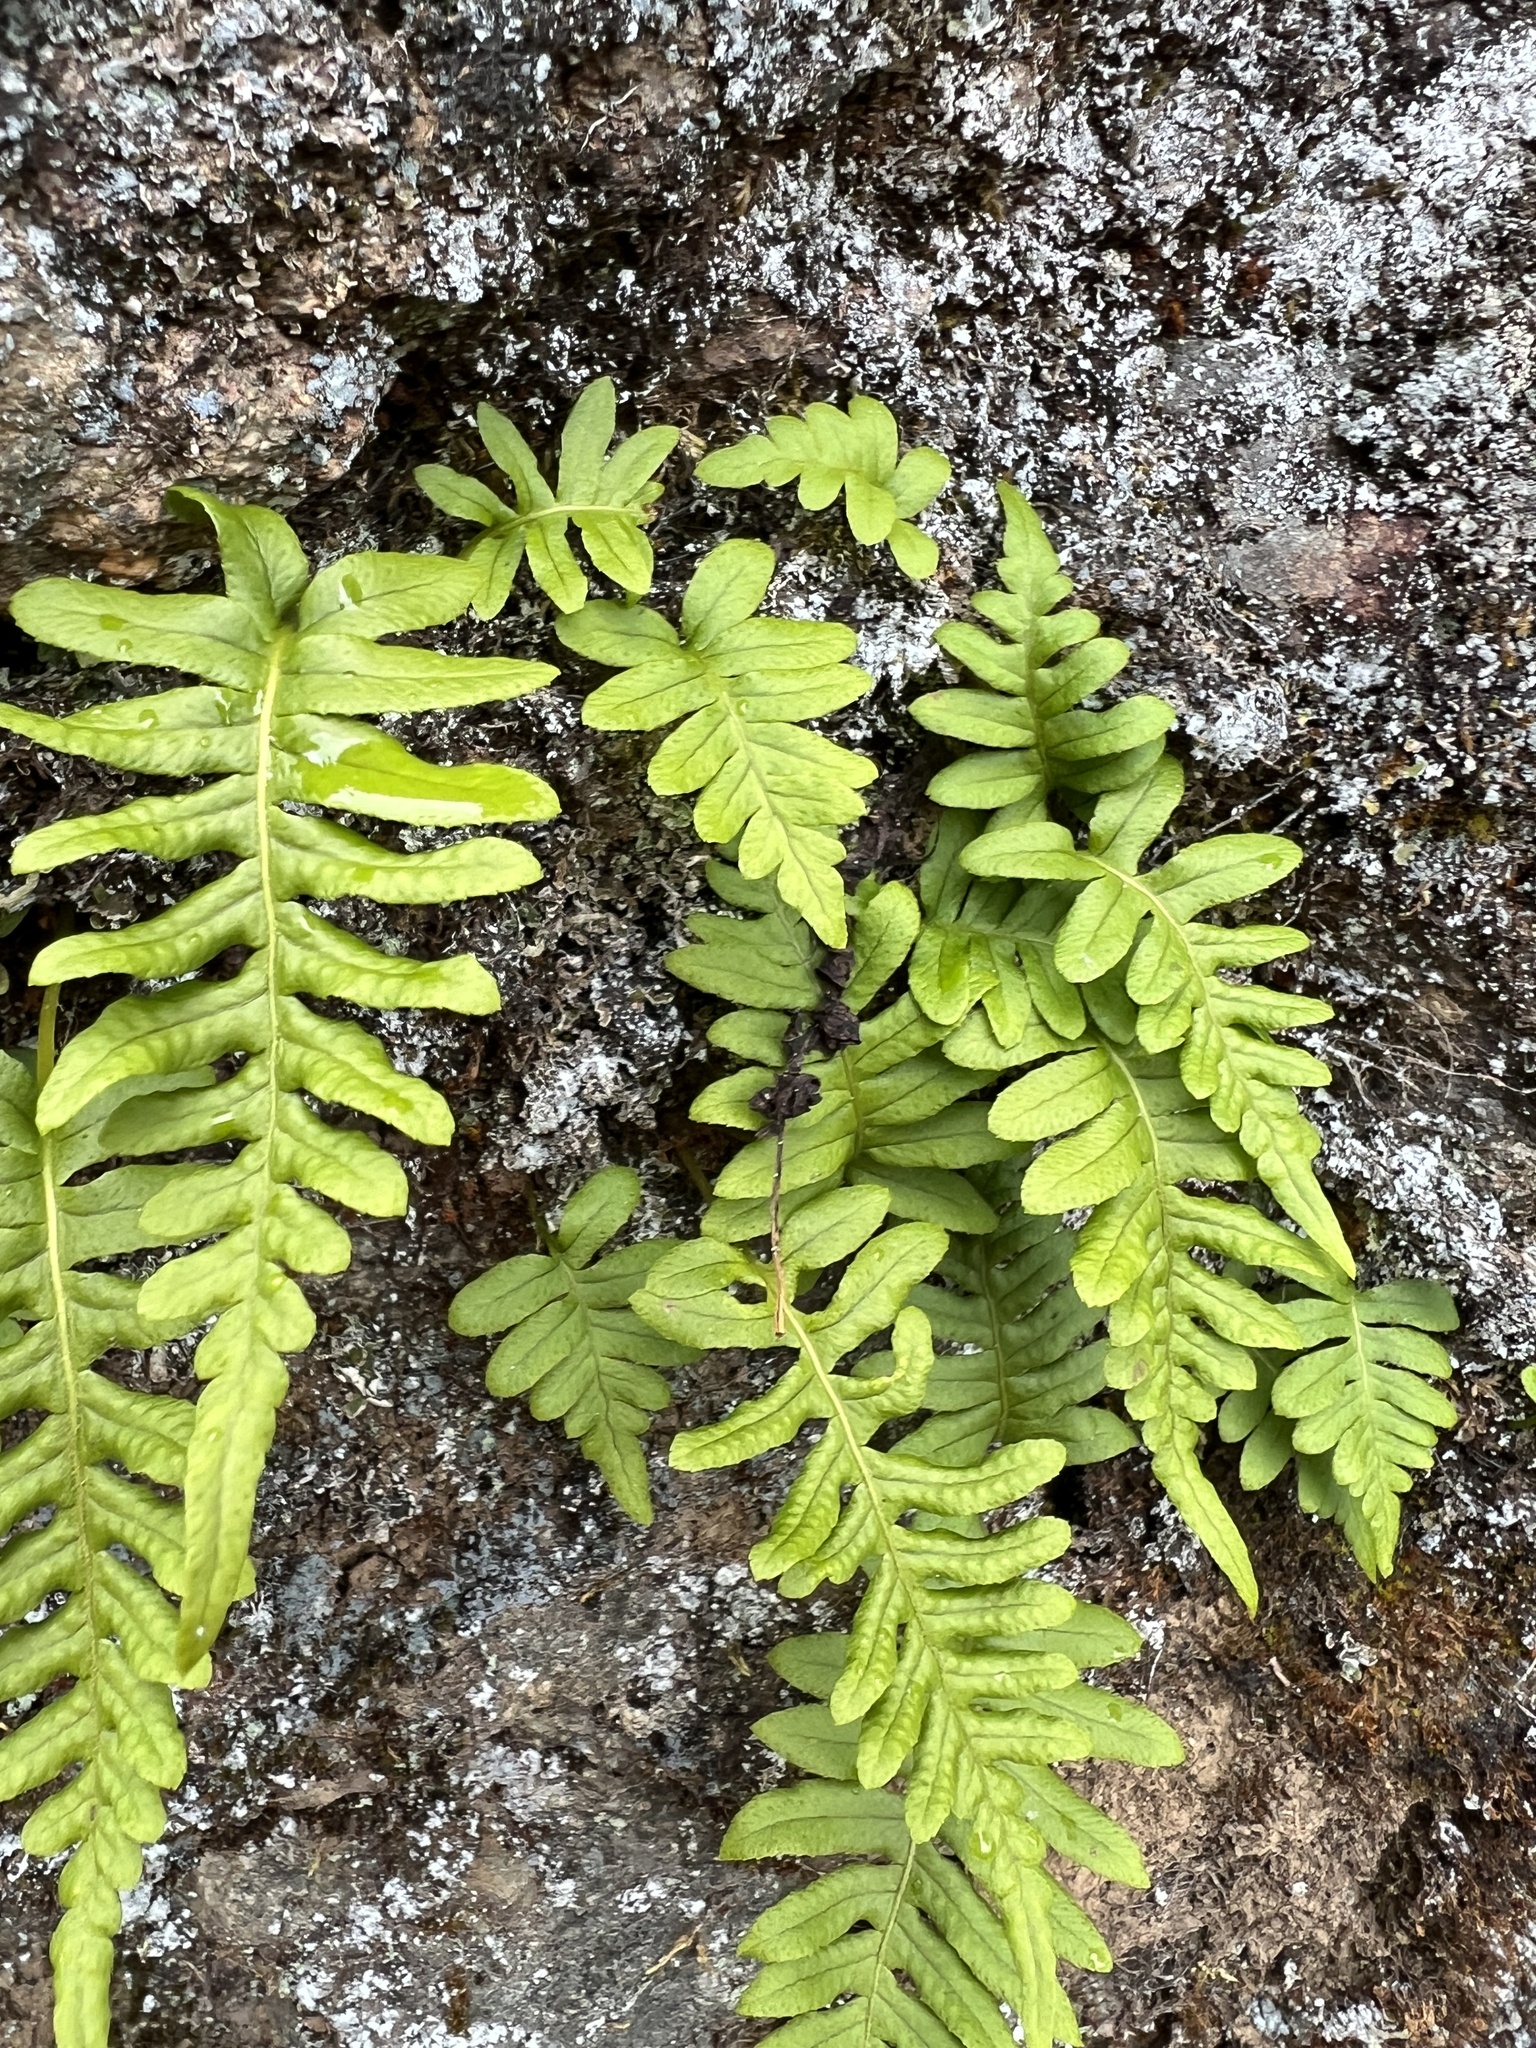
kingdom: Plantae
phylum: Tracheophyta
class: Polypodiopsida
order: Polypodiales
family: Polypodiaceae
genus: Polypodium
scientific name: Polypodium glycyrrhiza
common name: Licorice fern
